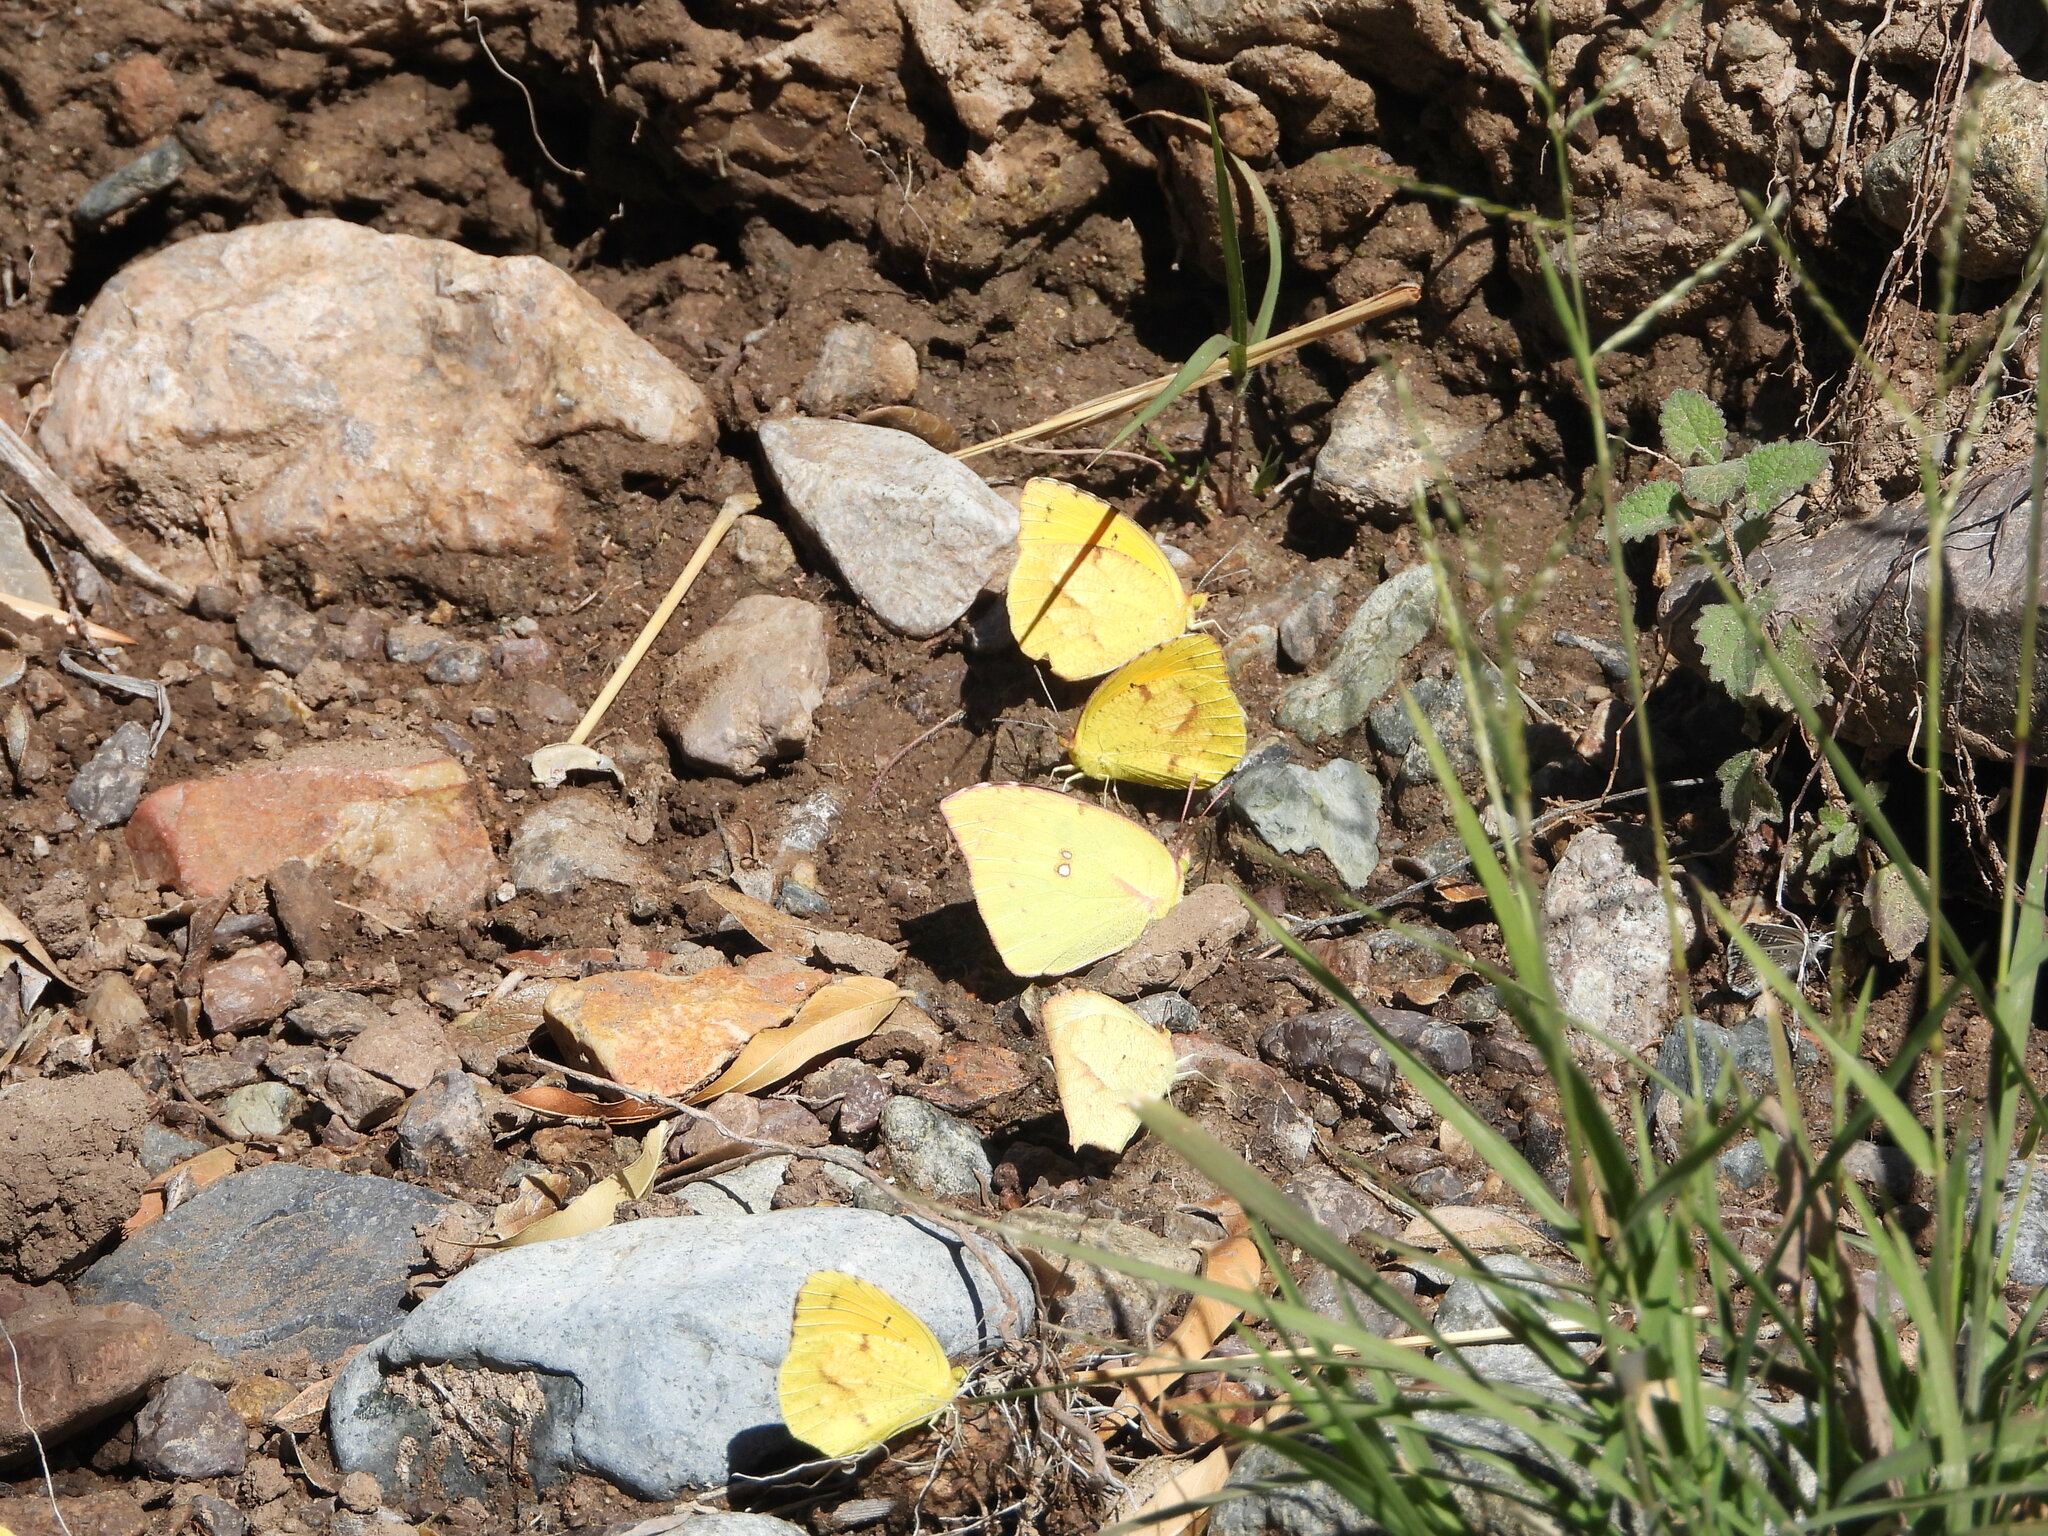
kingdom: Animalia
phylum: Arthropoda
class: Insecta
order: Lepidoptera
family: Pieridae
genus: Abaeis
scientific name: Abaeis nicippe
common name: Sleepy orange
